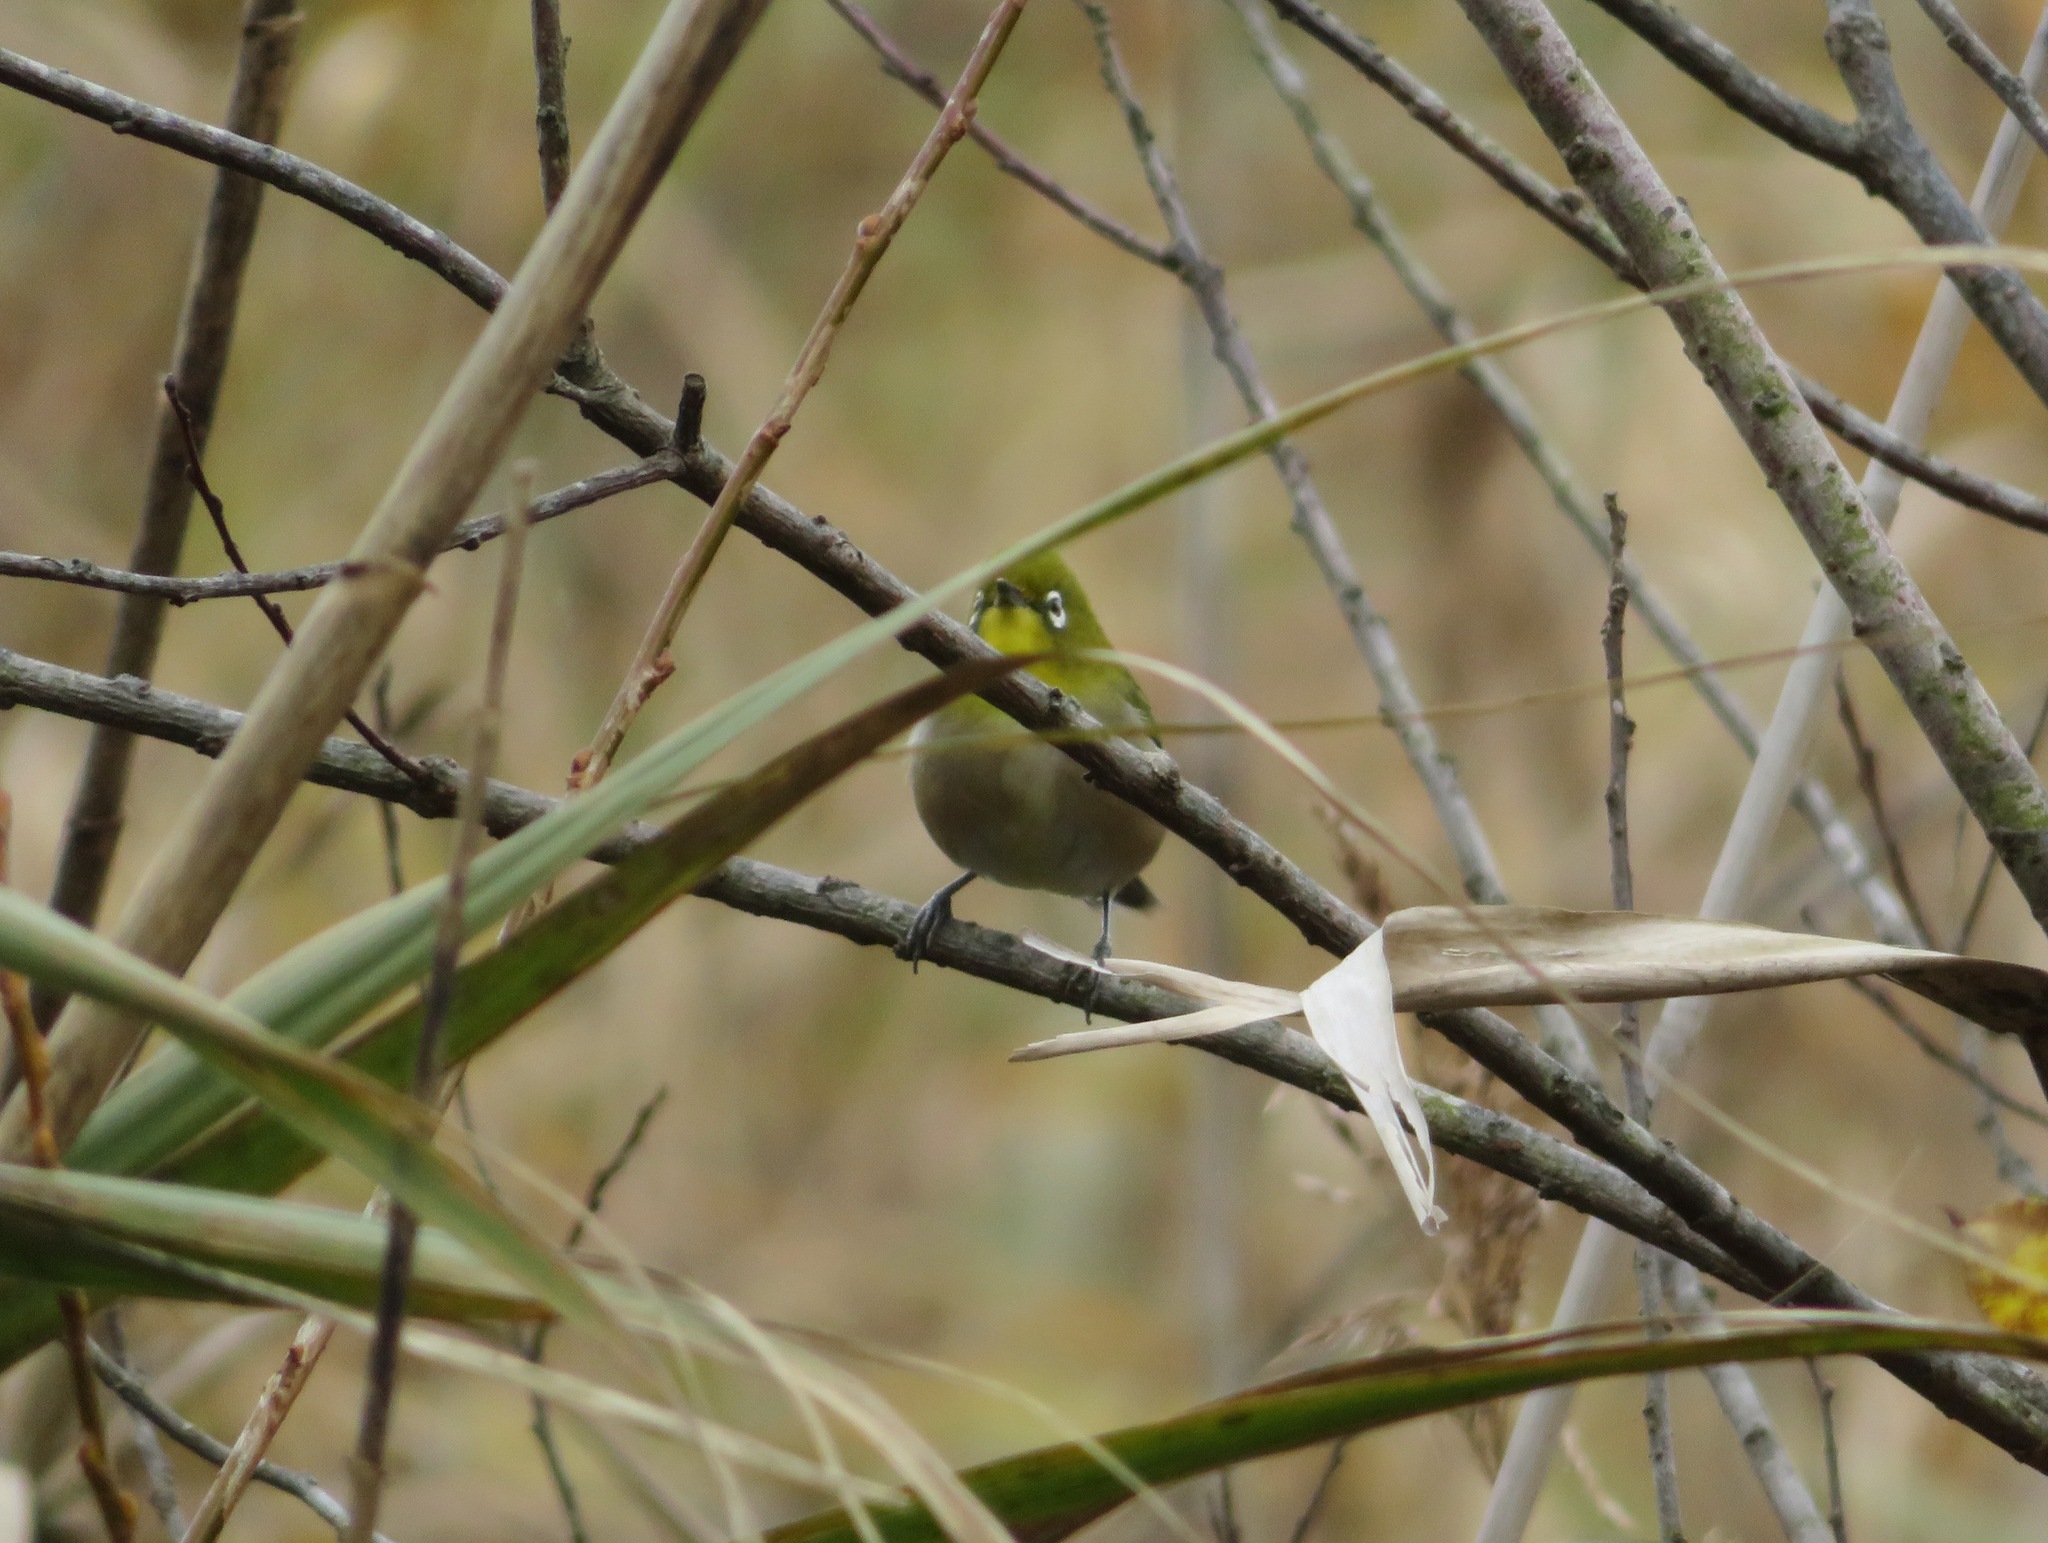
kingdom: Animalia
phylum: Chordata
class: Aves
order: Passeriformes
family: Zosteropidae
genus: Zosterops
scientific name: Zosterops japonicus
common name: Japanese white-eye
